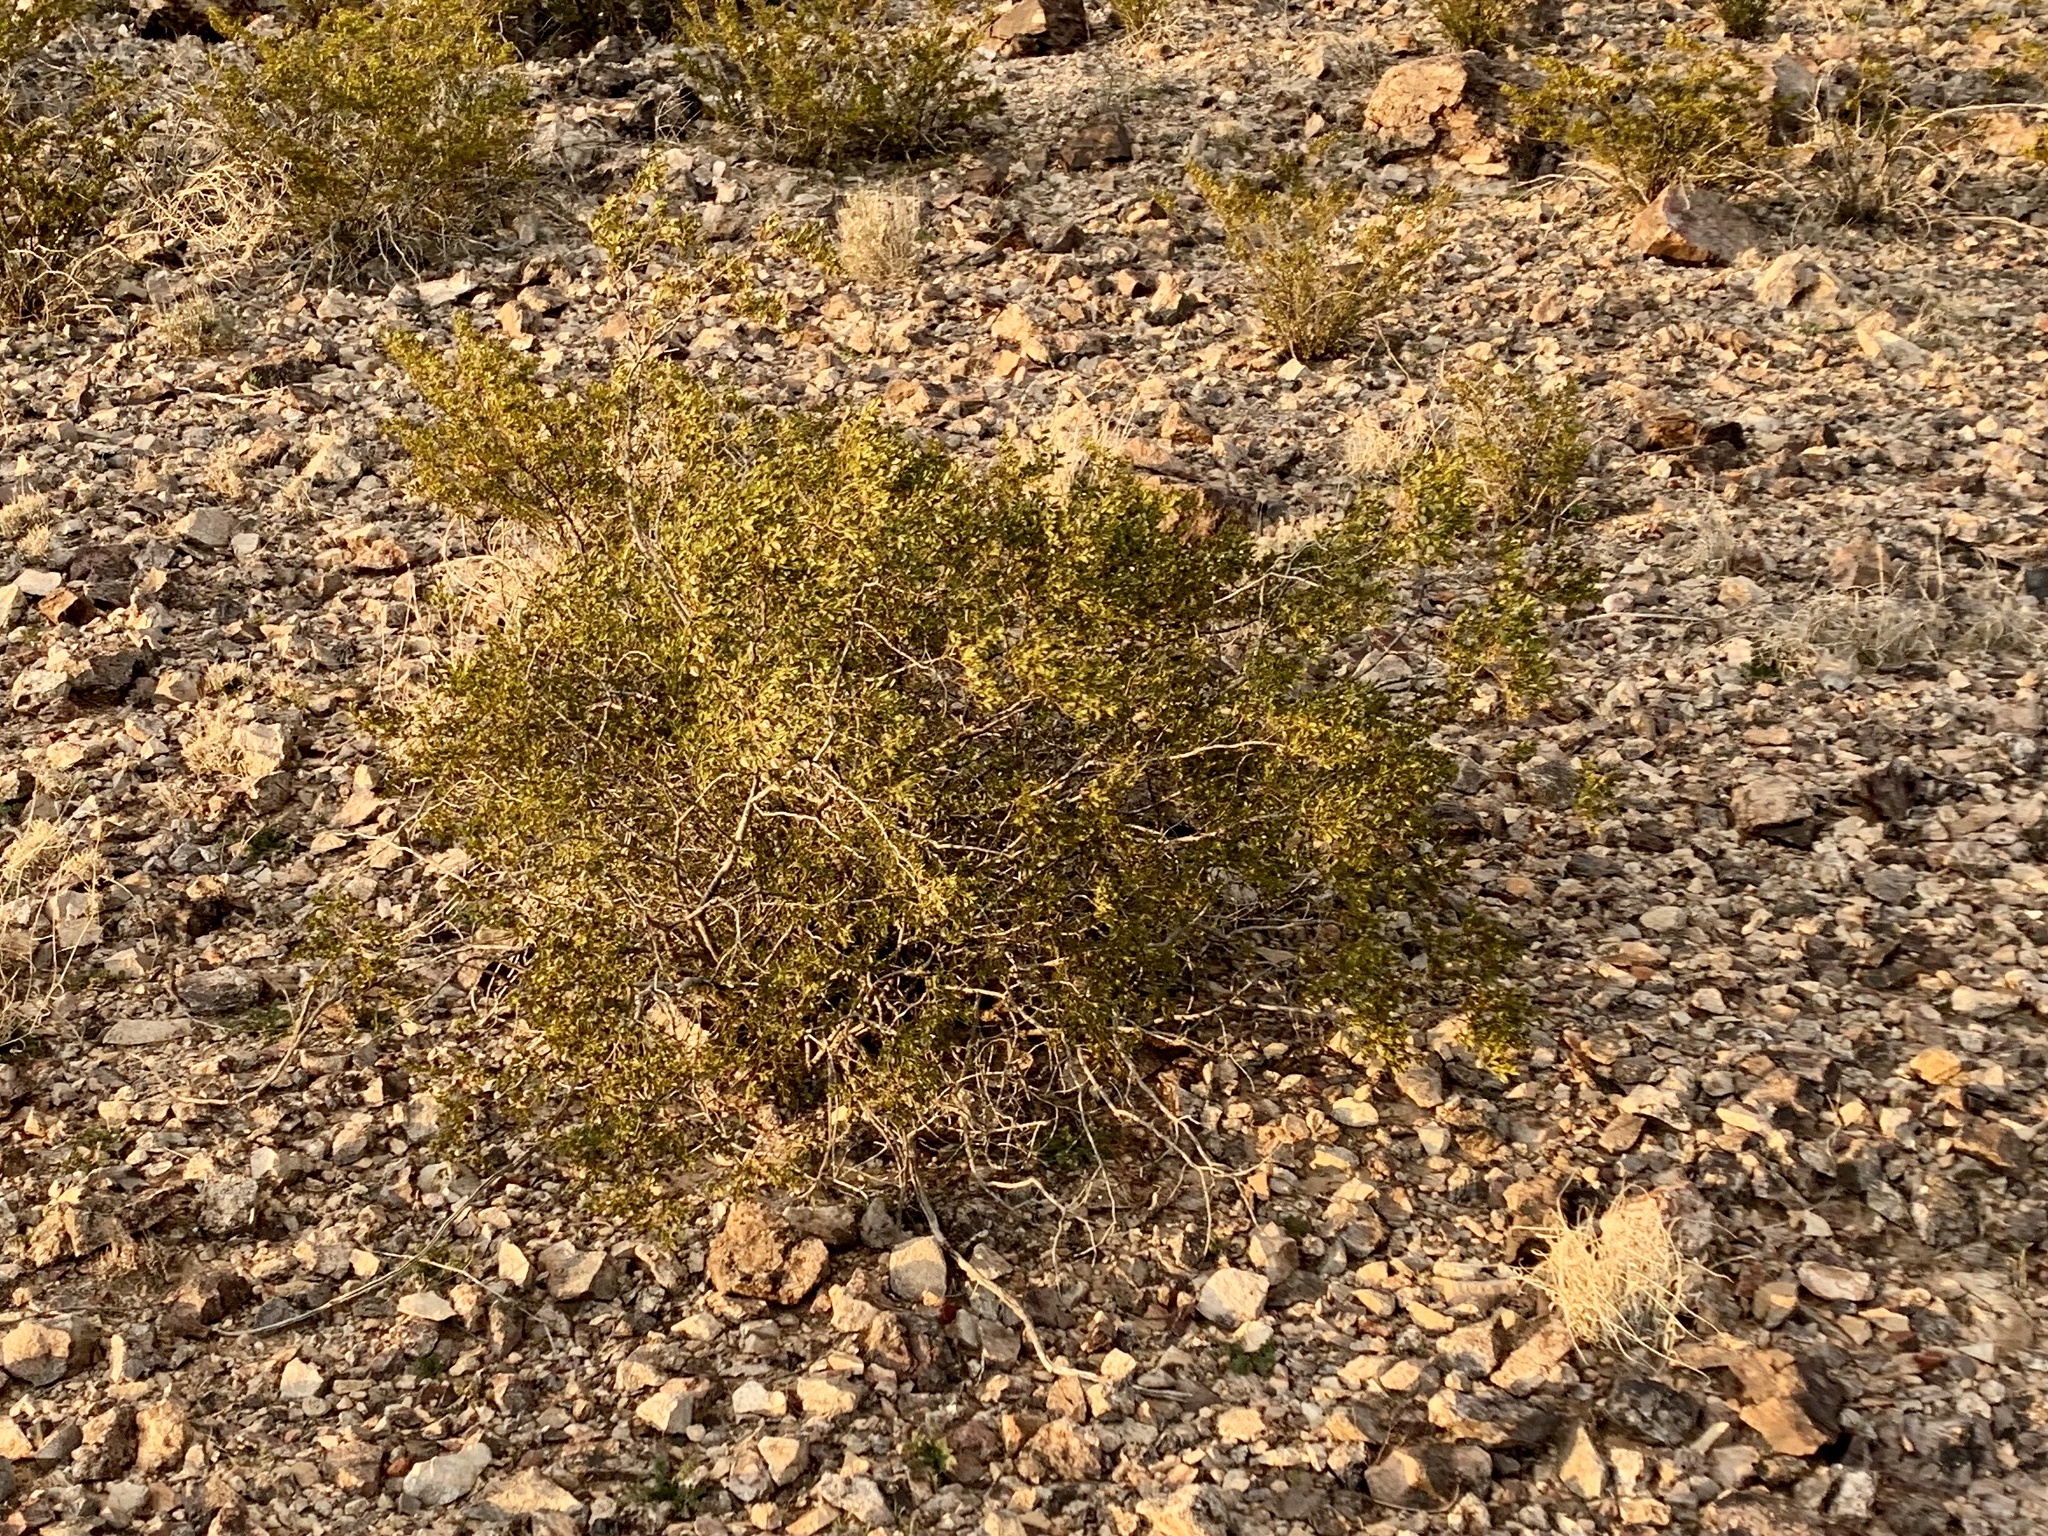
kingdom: Plantae
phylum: Tracheophyta
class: Magnoliopsida
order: Zygophyllales
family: Zygophyllaceae
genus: Larrea
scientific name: Larrea tridentata
